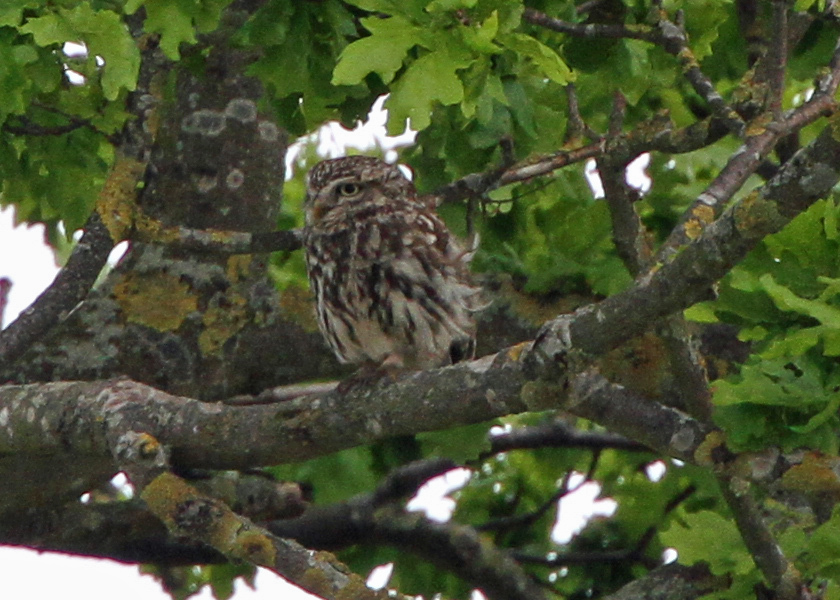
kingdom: Animalia
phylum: Chordata
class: Aves
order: Strigiformes
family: Strigidae
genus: Athene
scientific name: Athene noctua
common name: Little owl
